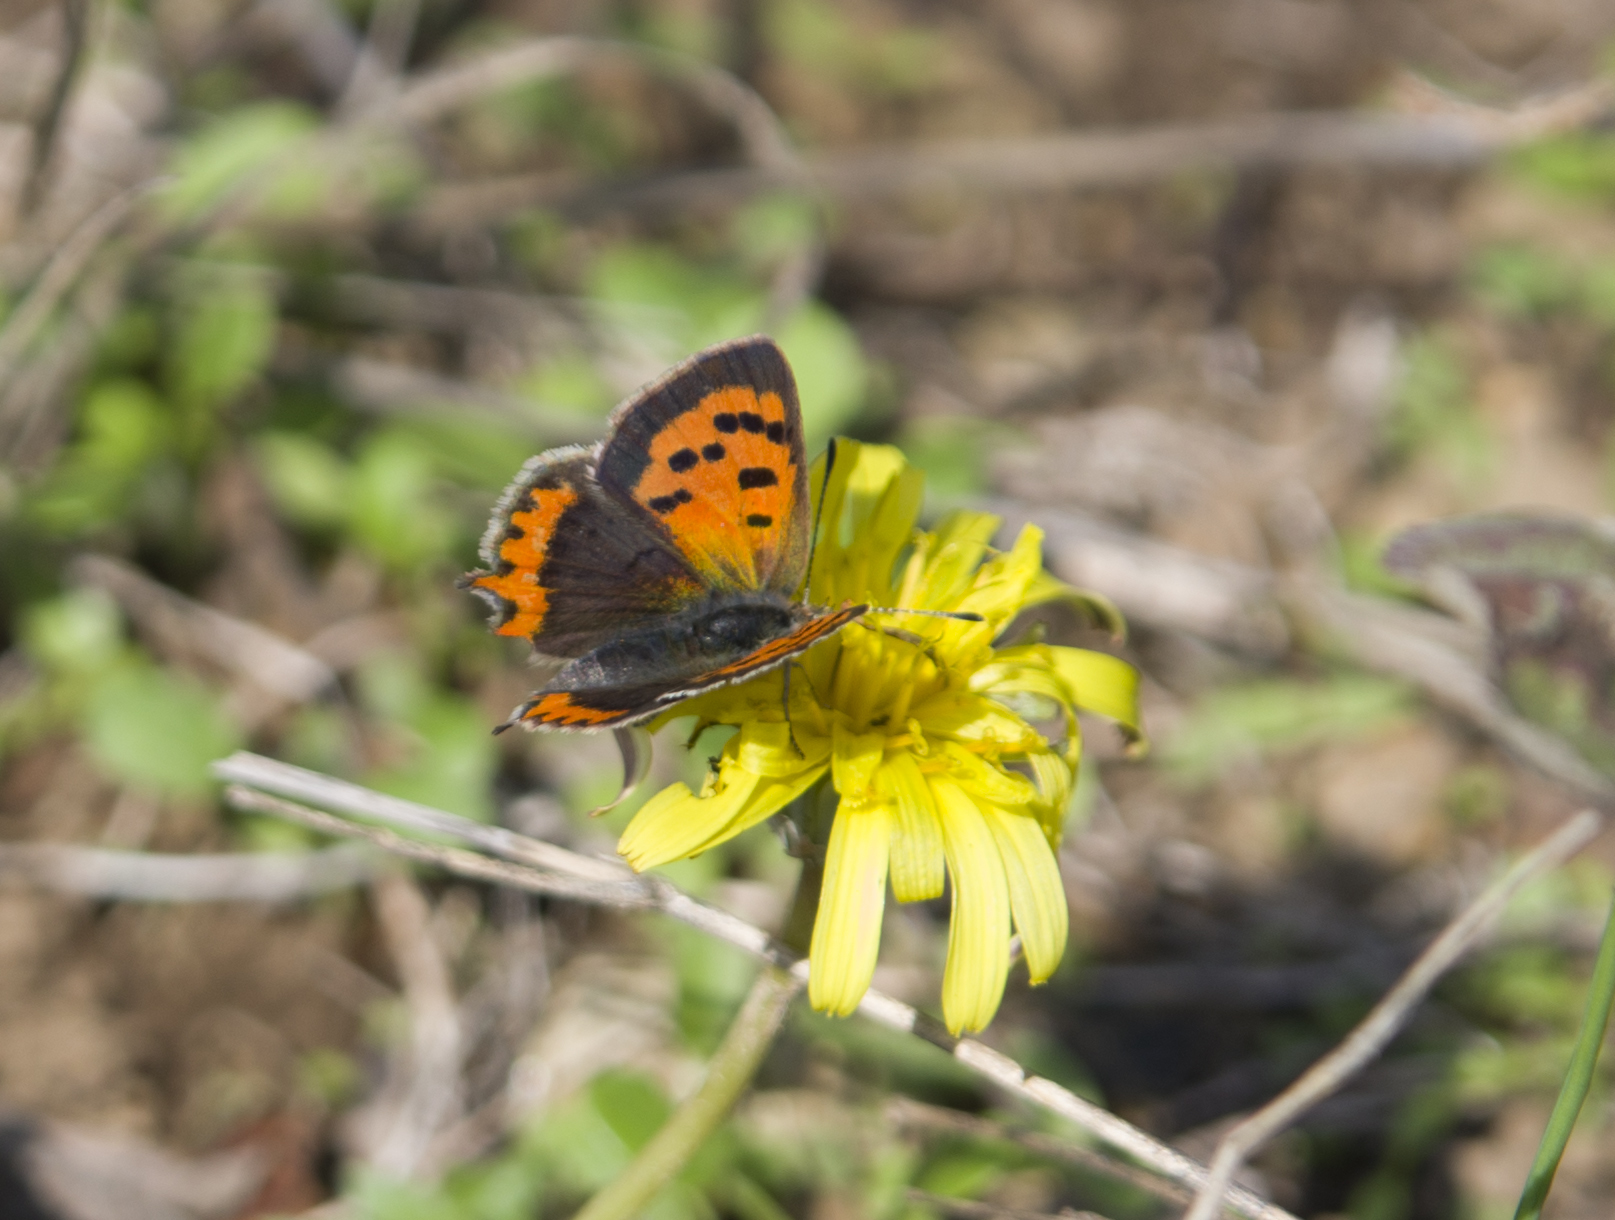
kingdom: Animalia
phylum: Arthropoda
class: Insecta
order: Lepidoptera
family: Lycaenidae
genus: Lycaena
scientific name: Lycaena phlaeas
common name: Small copper
